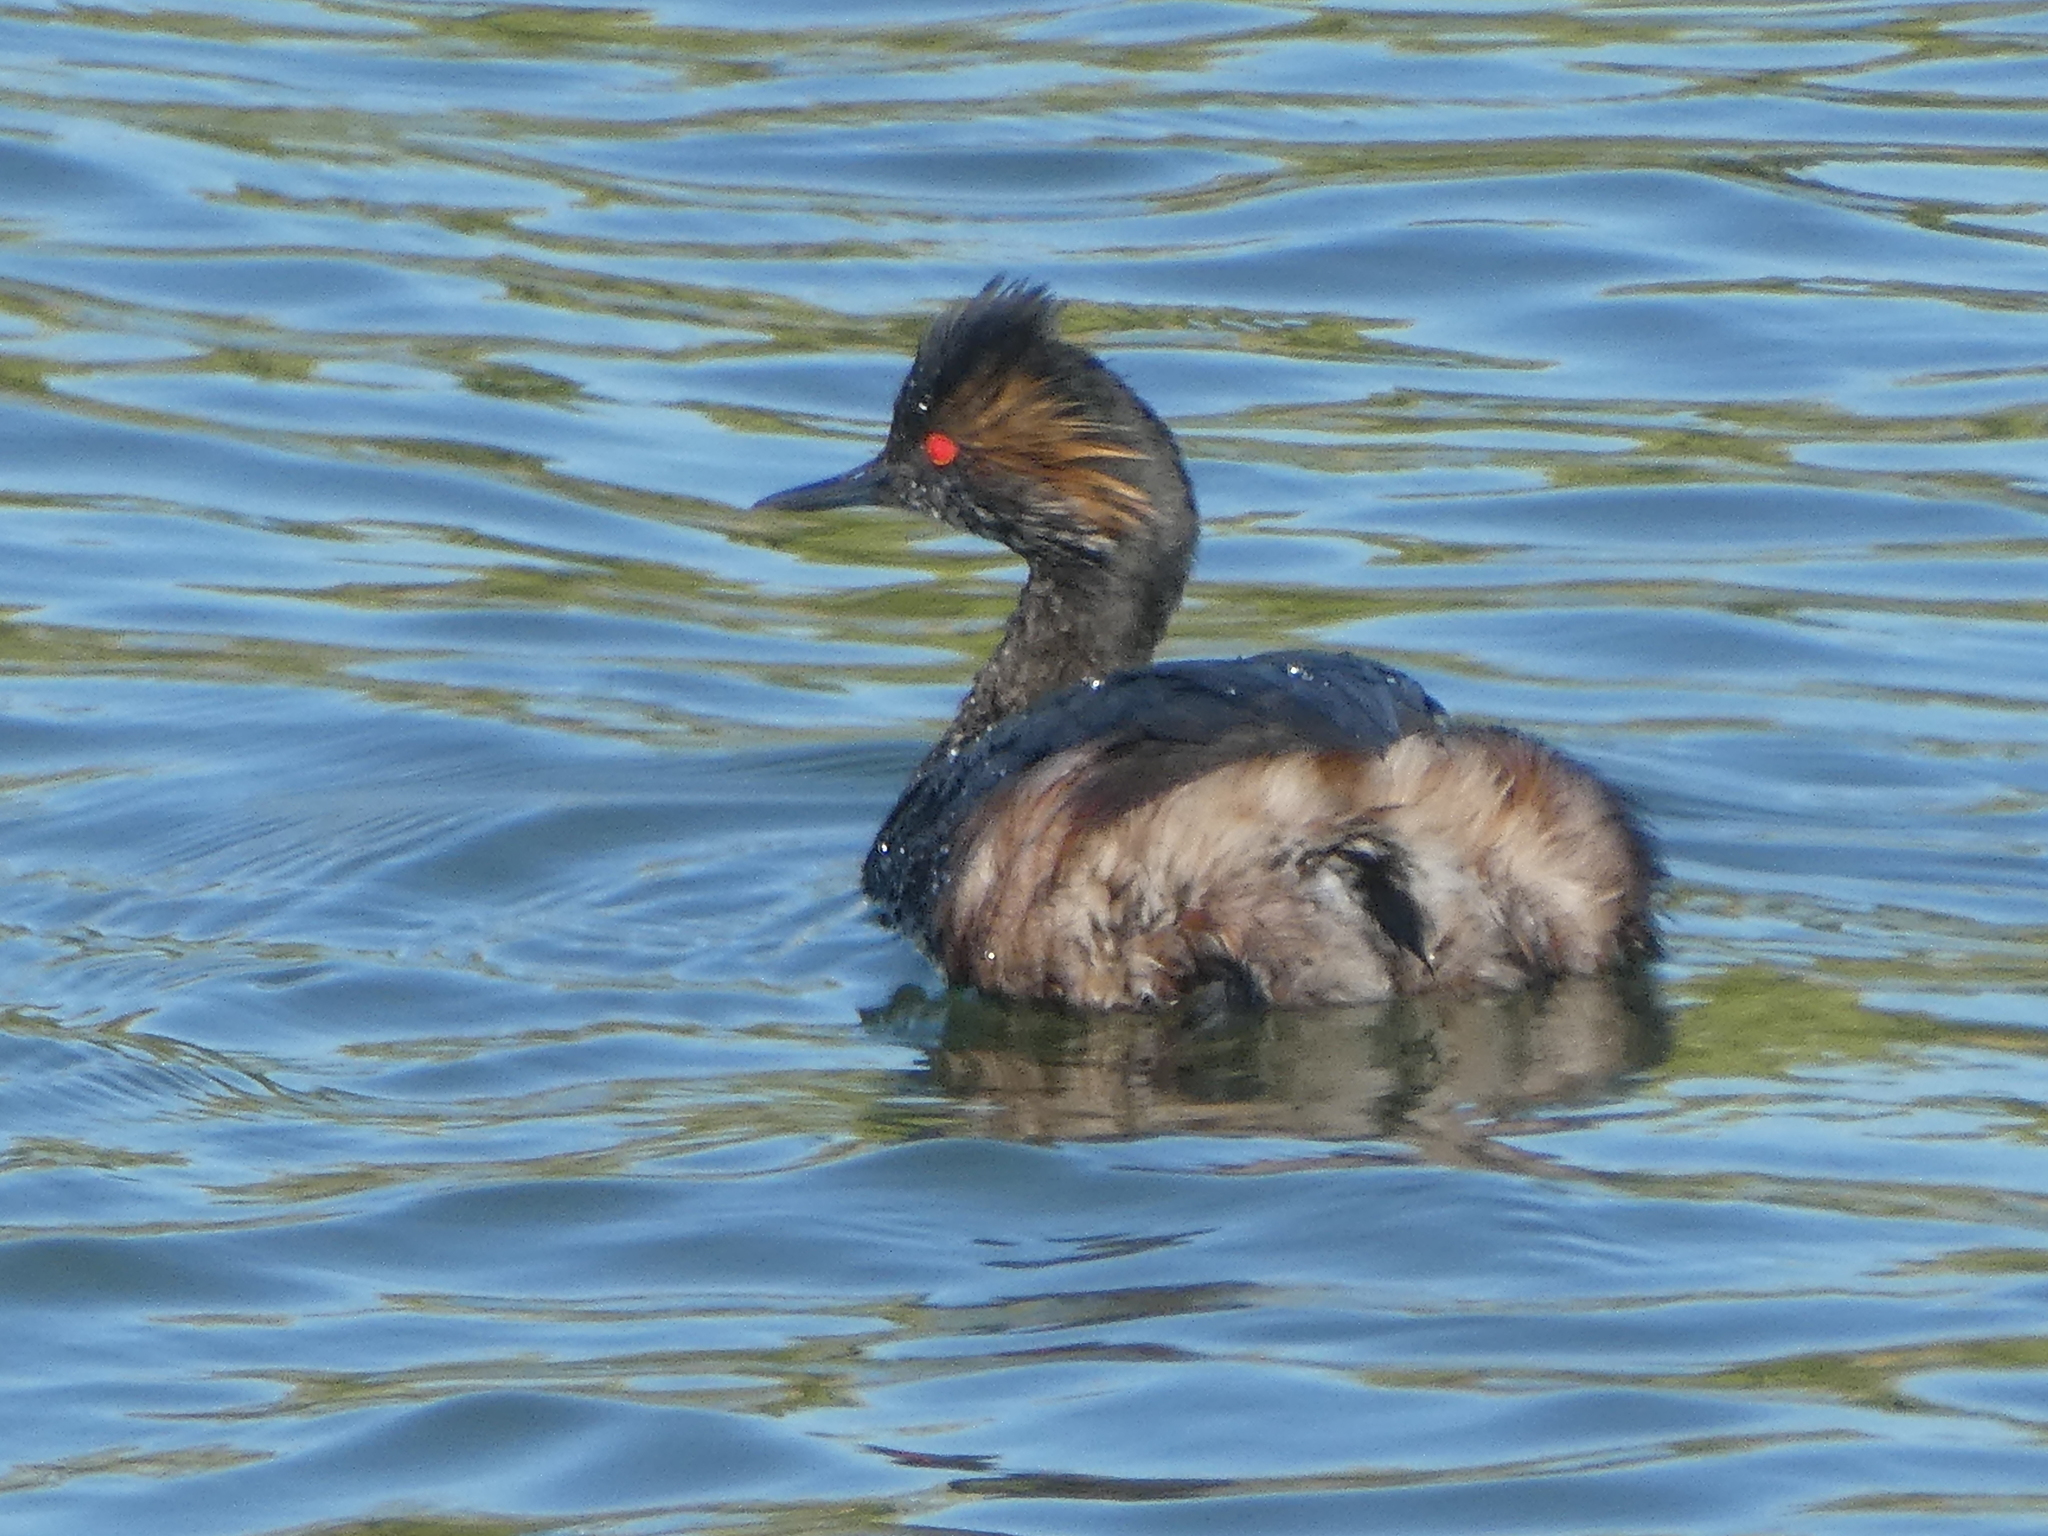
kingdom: Animalia
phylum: Chordata
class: Aves
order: Podicipediformes
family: Podicipedidae
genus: Podiceps
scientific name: Podiceps nigricollis
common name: Black-necked grebe
